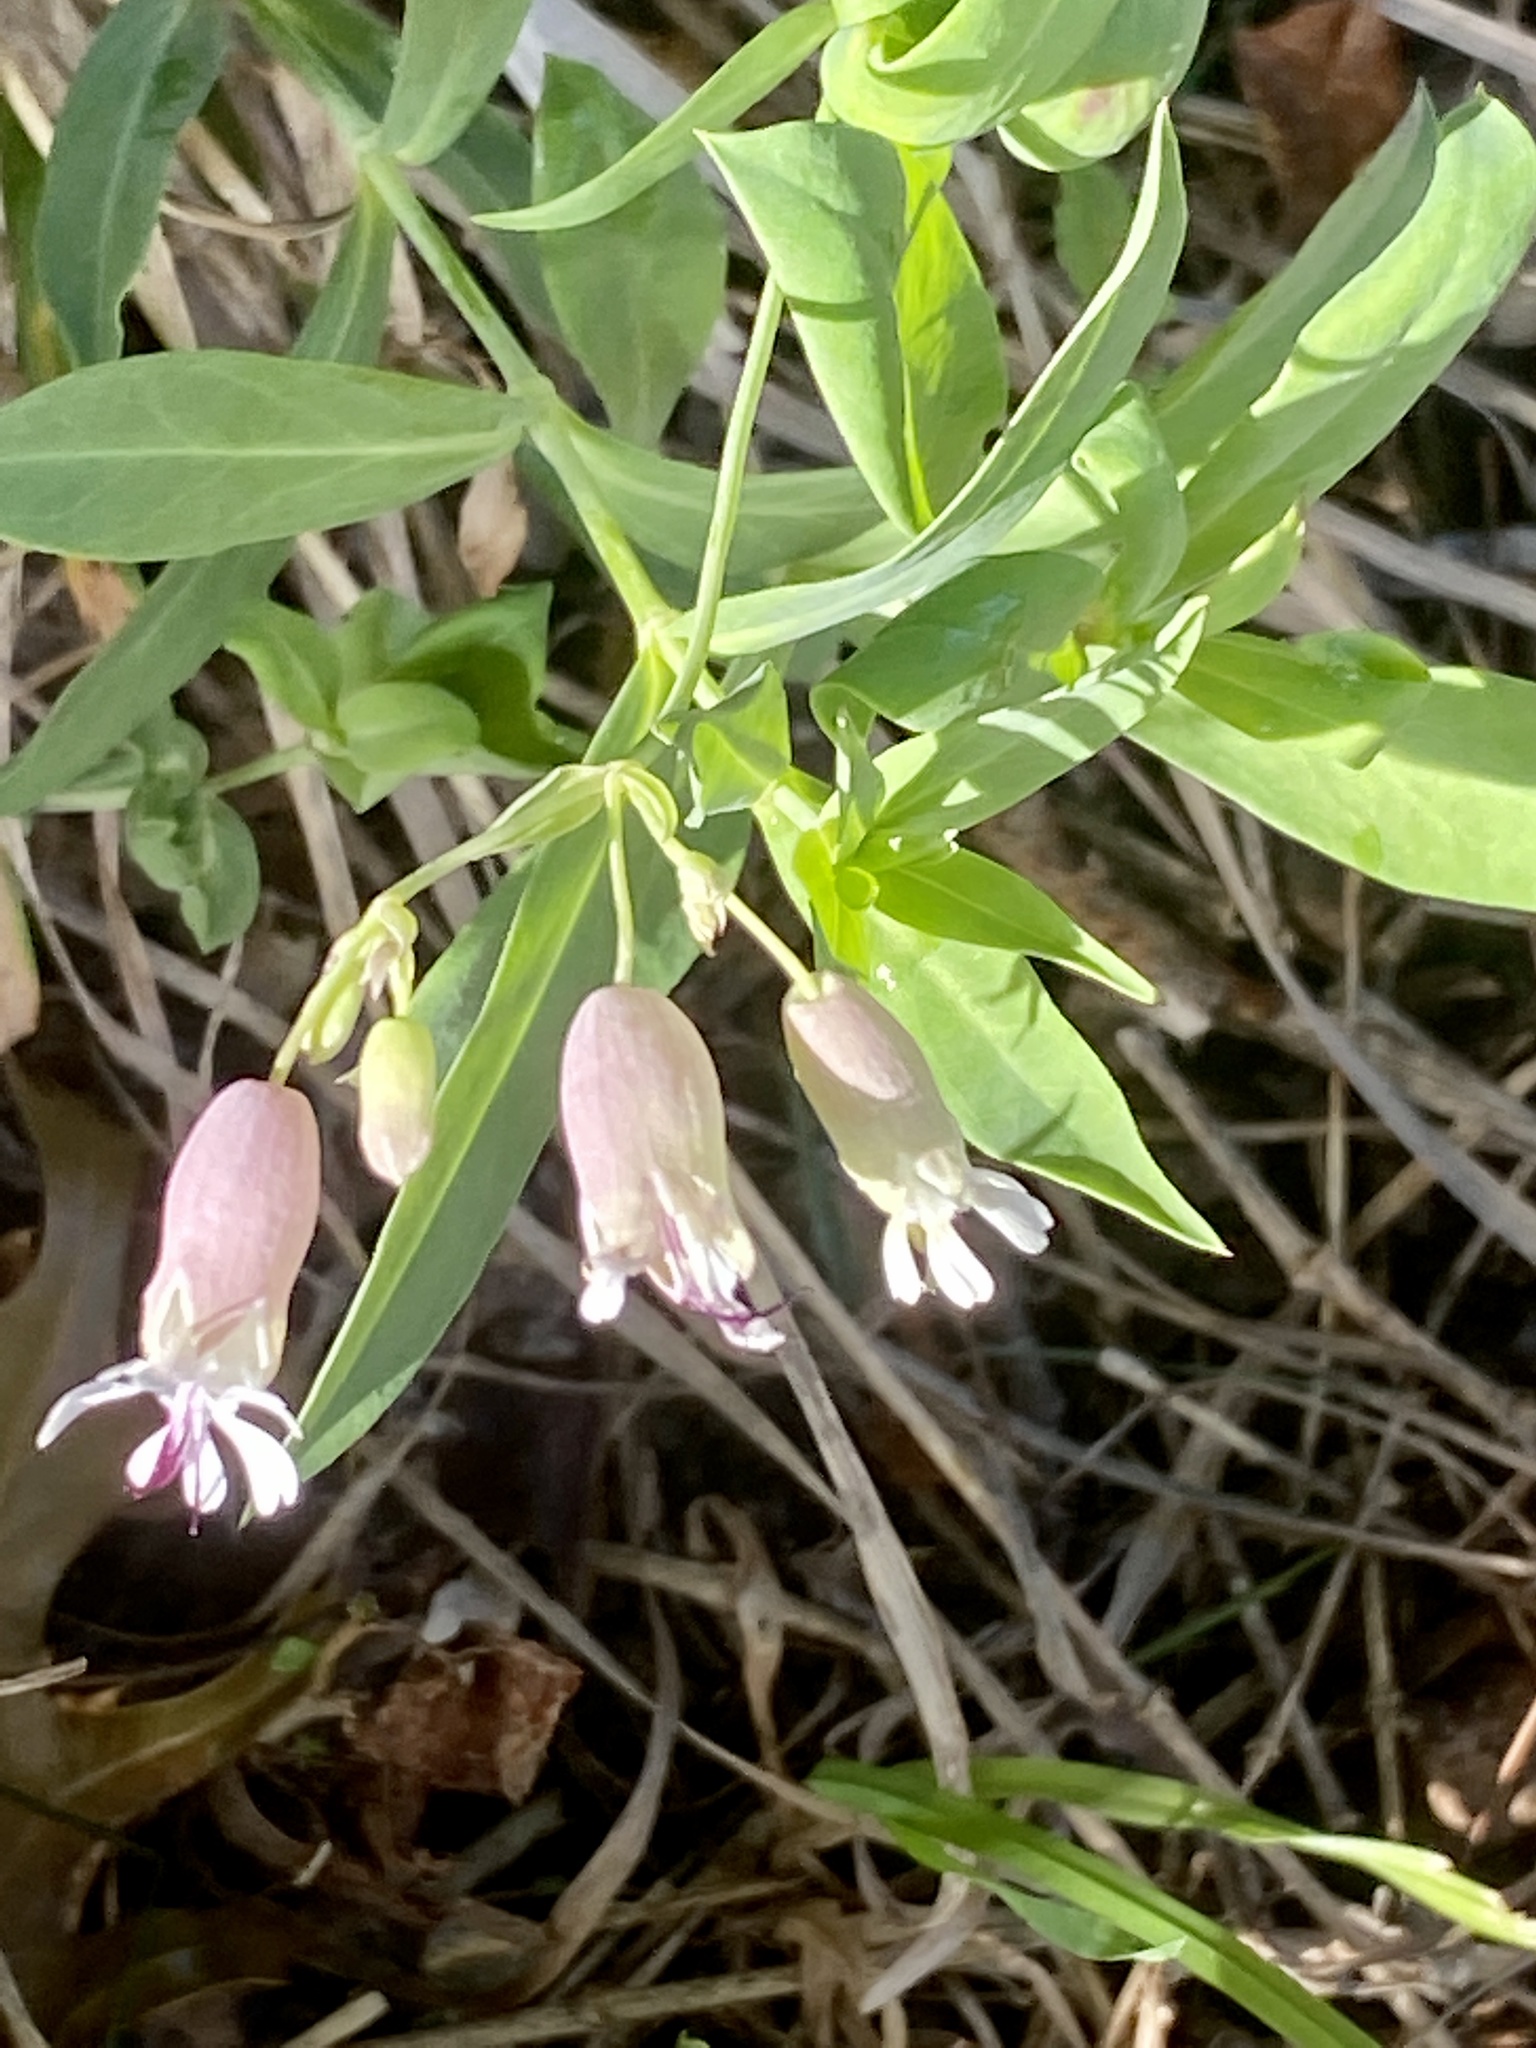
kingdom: Plantae
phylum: Tracheophyta
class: Magnoliopsida
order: Caryophyllales
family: Caryophyllaceae
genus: Silene
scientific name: Silene vulgaris
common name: Bladder campion
